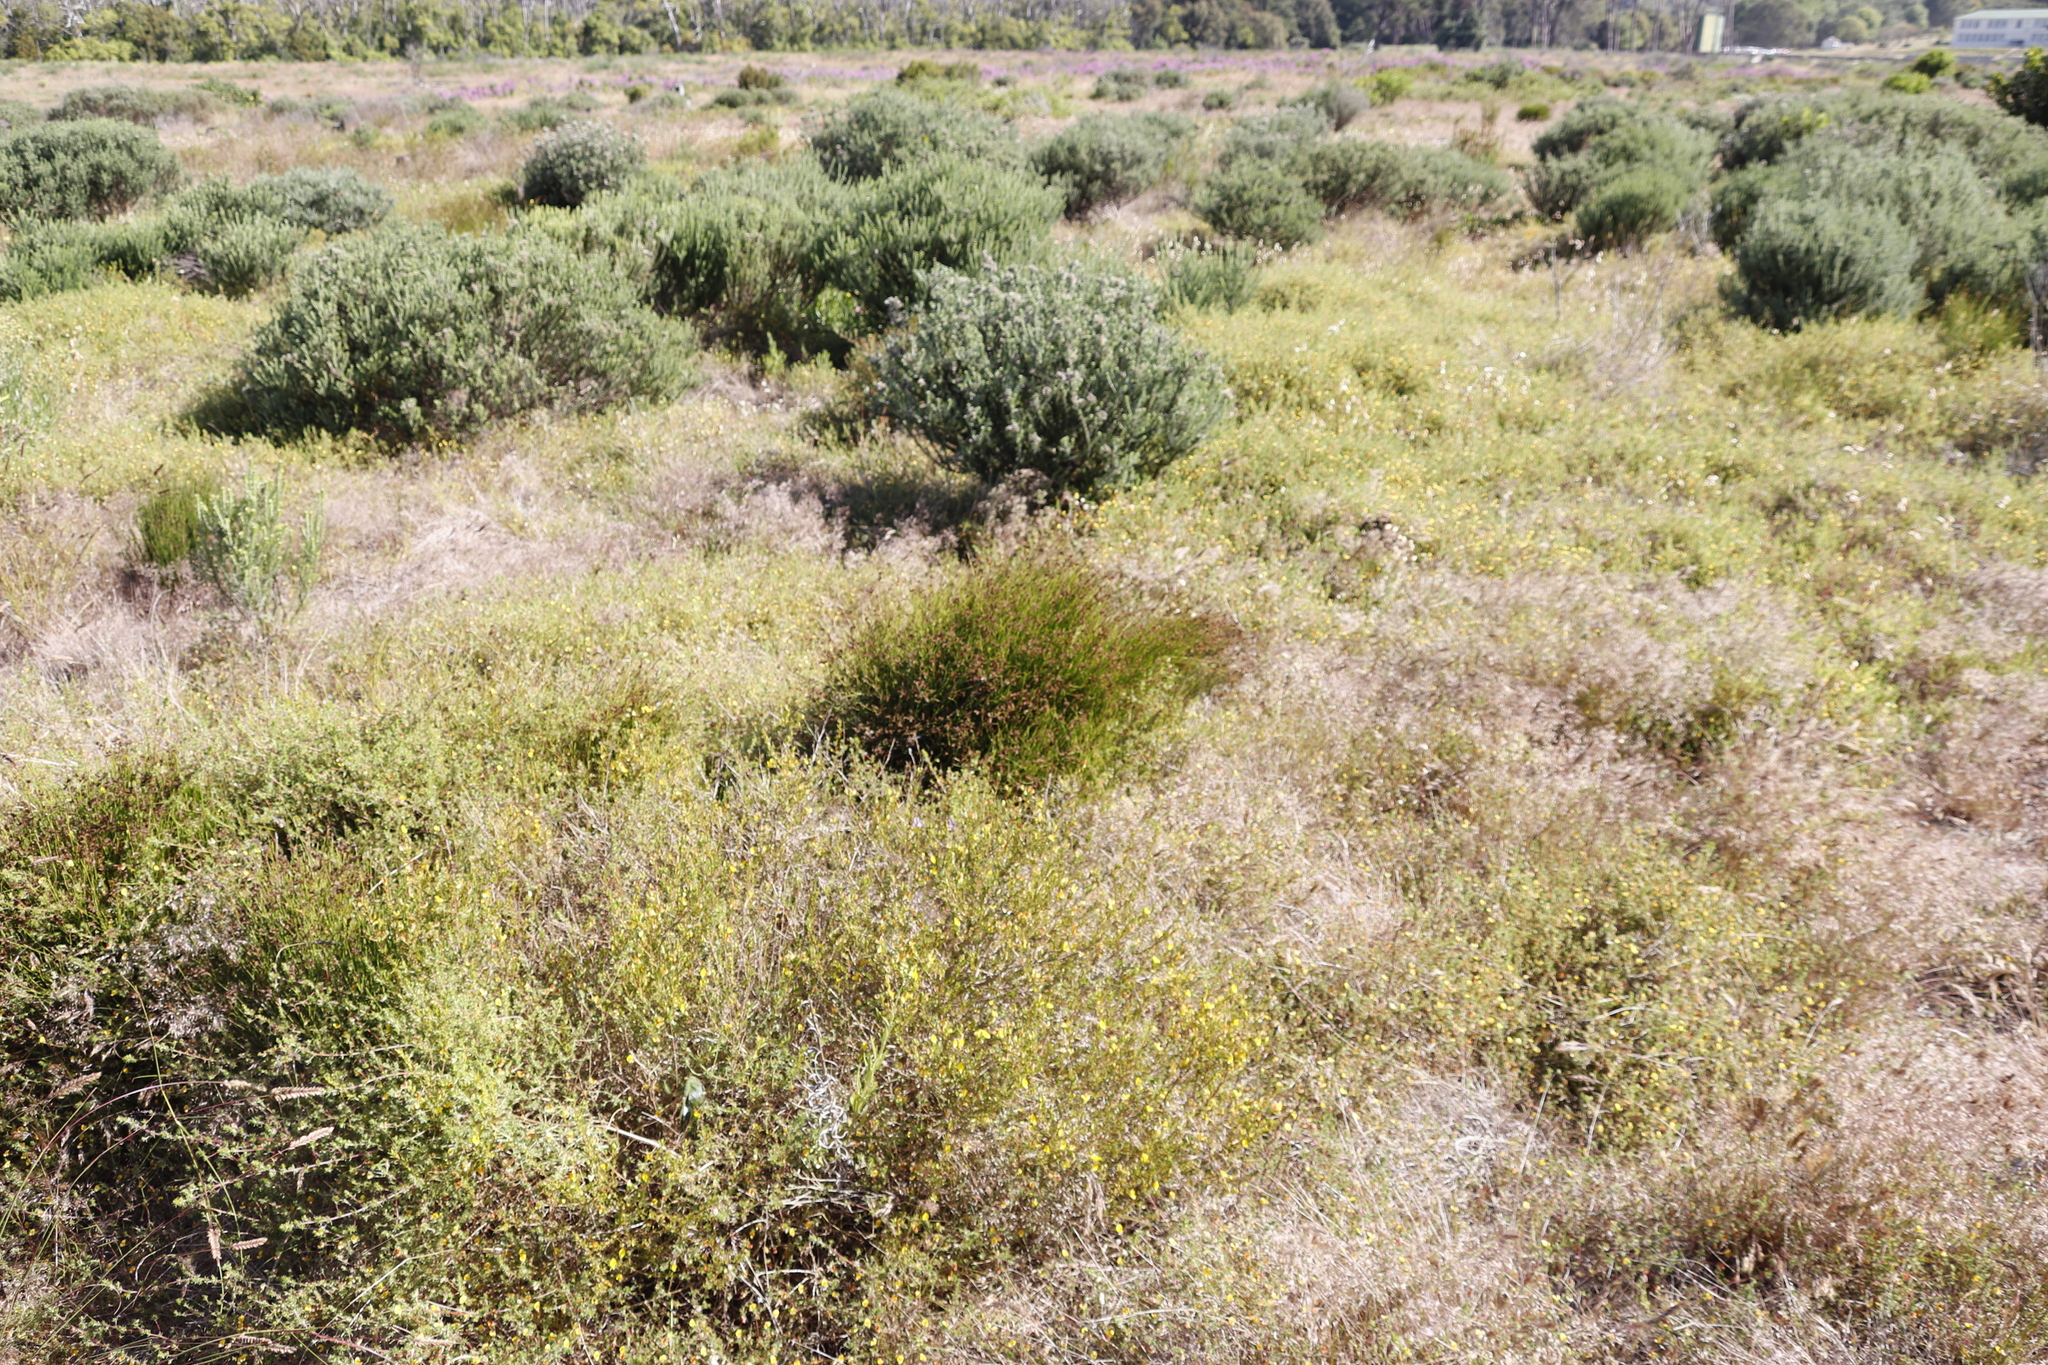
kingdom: Plantae
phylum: Tracheophyta
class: Liliopsida
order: Poales
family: Restionaceae
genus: Mastersiella
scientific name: Mastersiella digitata
